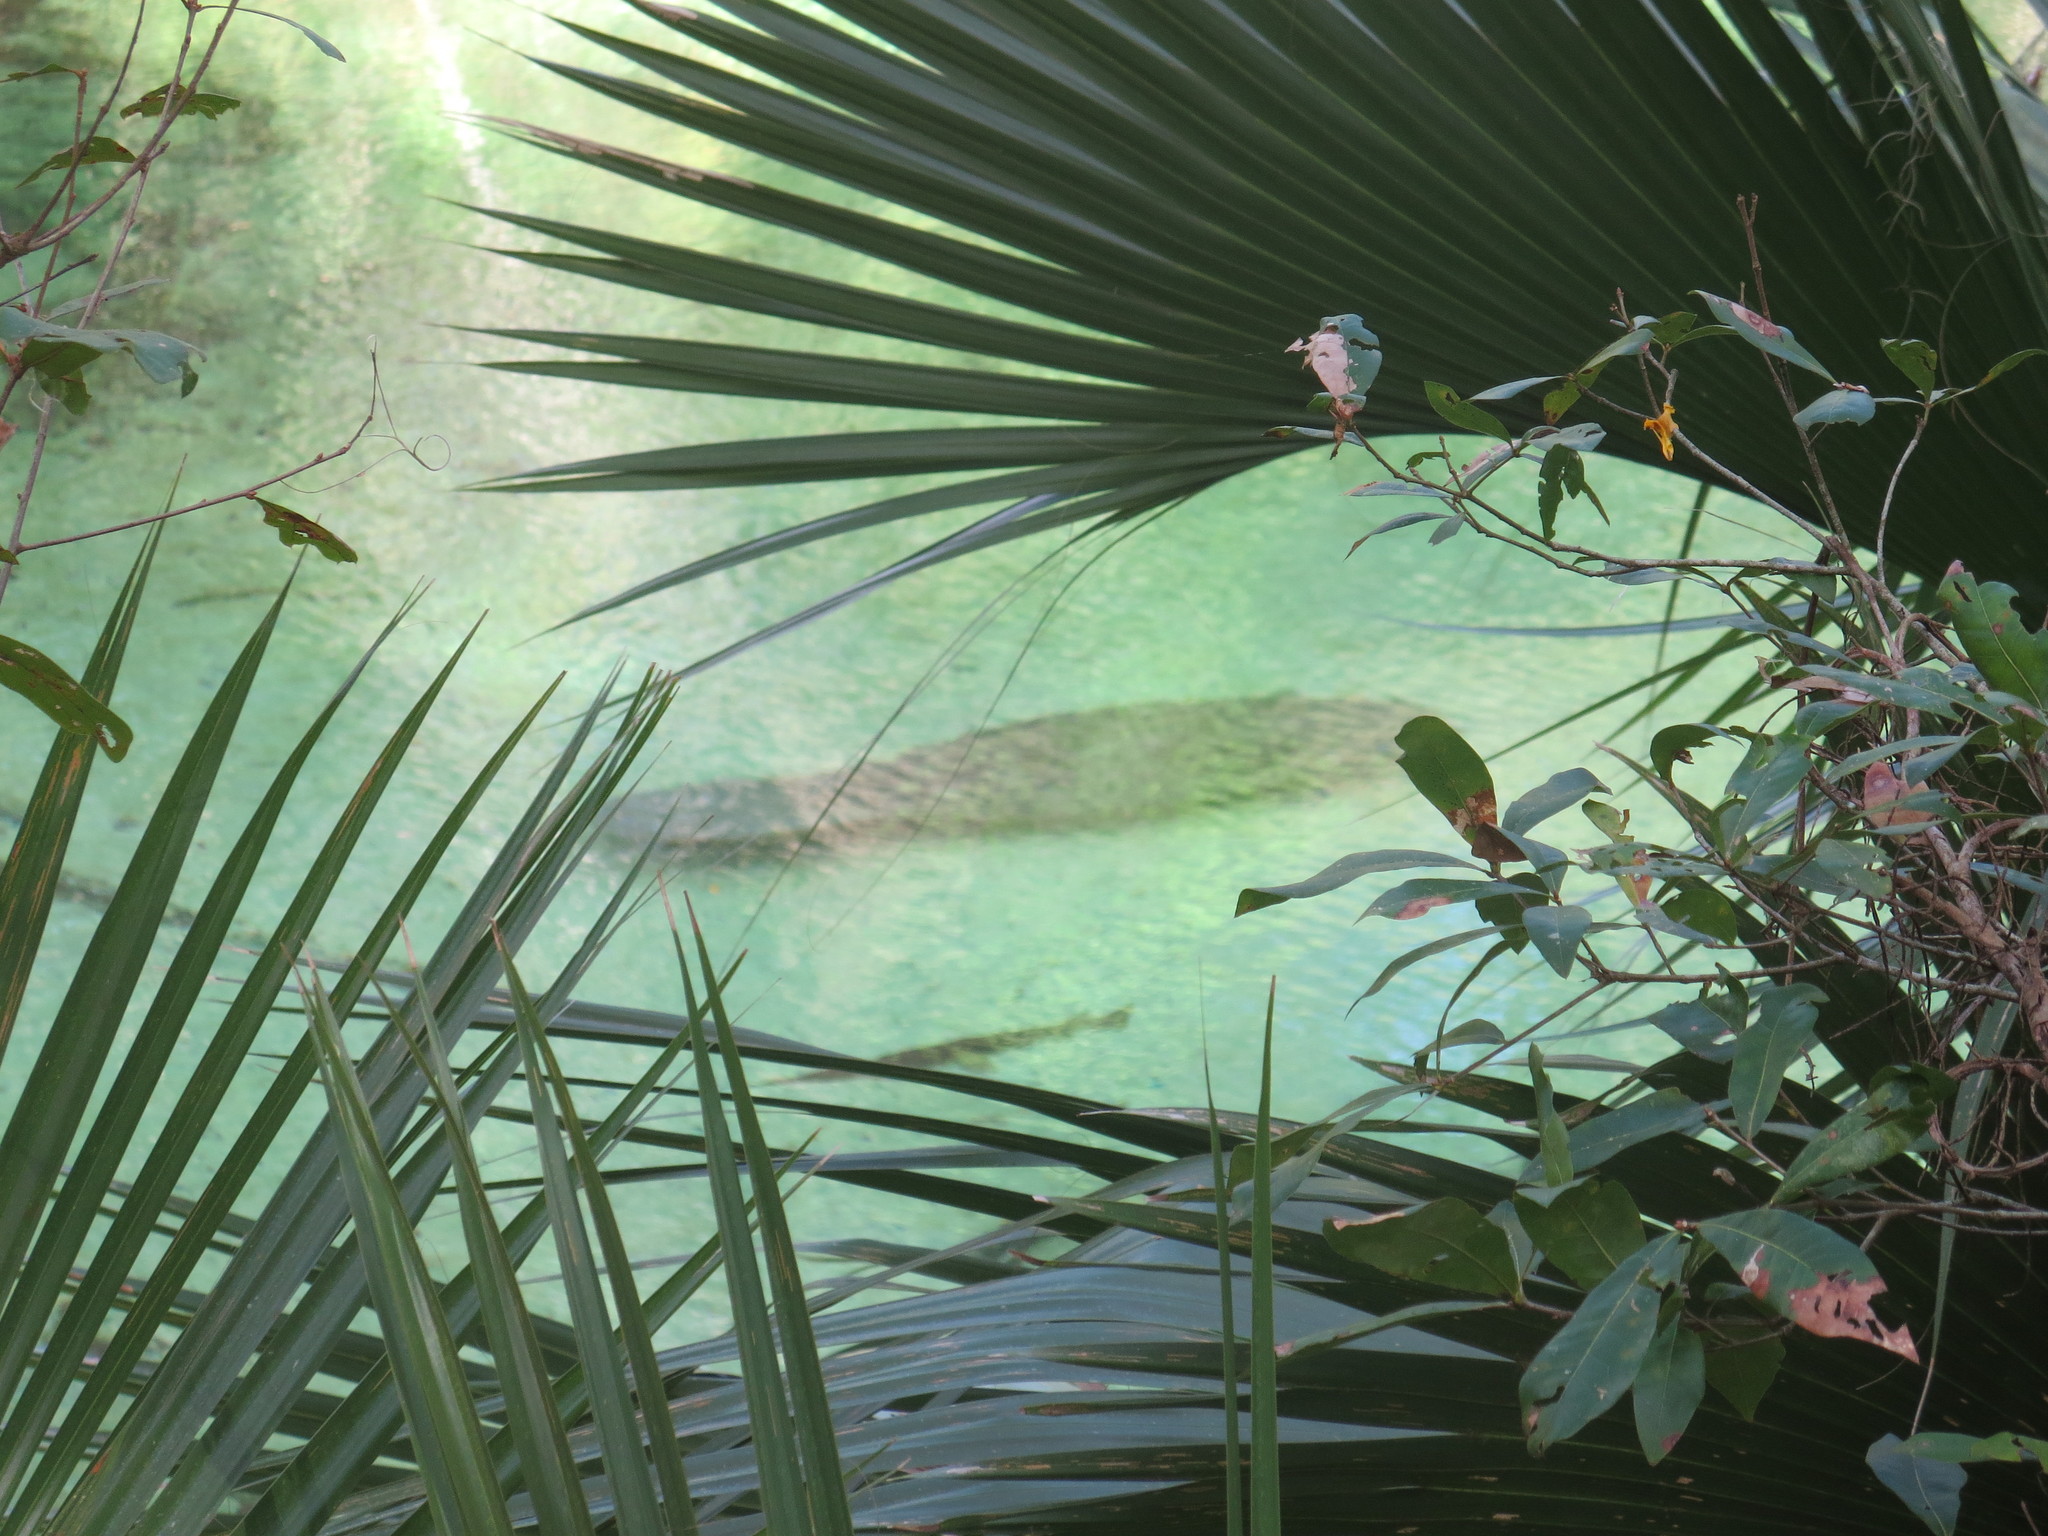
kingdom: Animalia
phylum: Chordata
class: Mammalia
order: Sirenia
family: Trichechidae
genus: Trichechus
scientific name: Trichechus manatus
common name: West indian manatee
